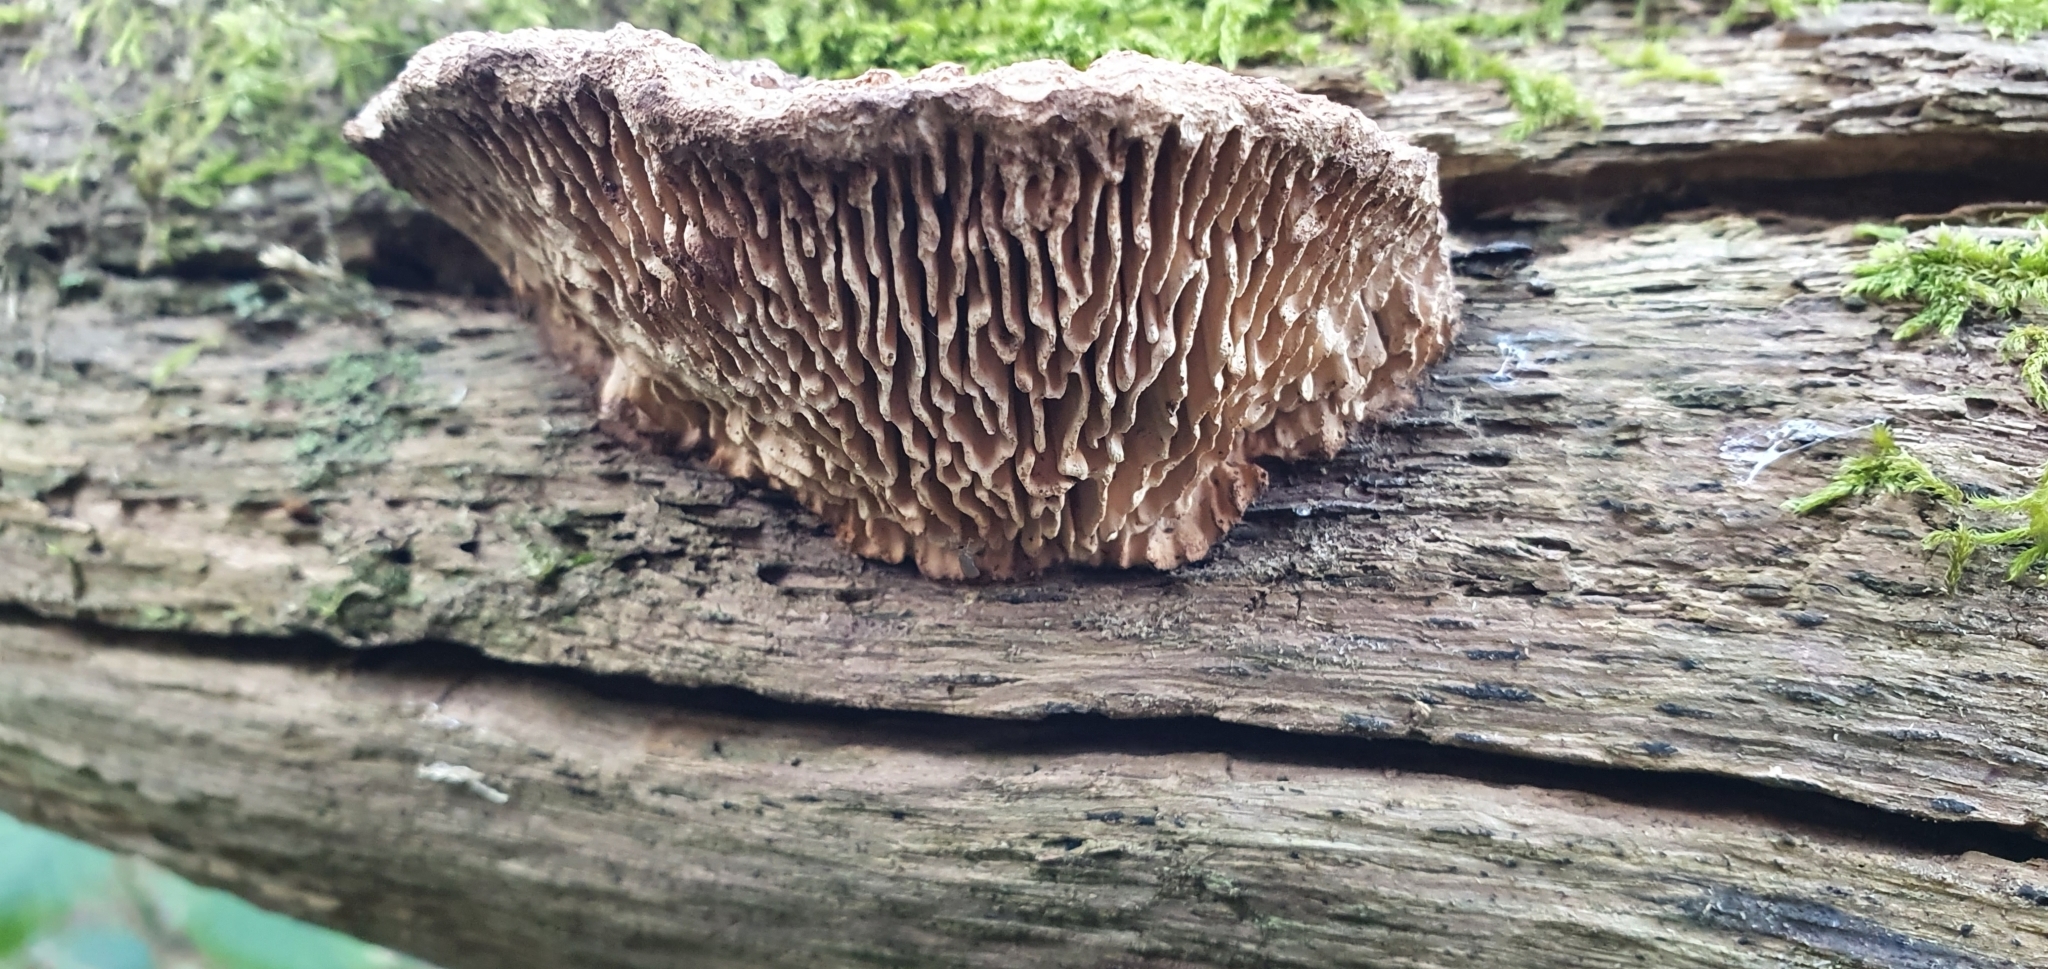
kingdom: Fungi
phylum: Basidiomycota
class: Agaricomycetes
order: Polyporales
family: Fomitopsidaceae
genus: Fomitopsis
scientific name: Fomitopsis
